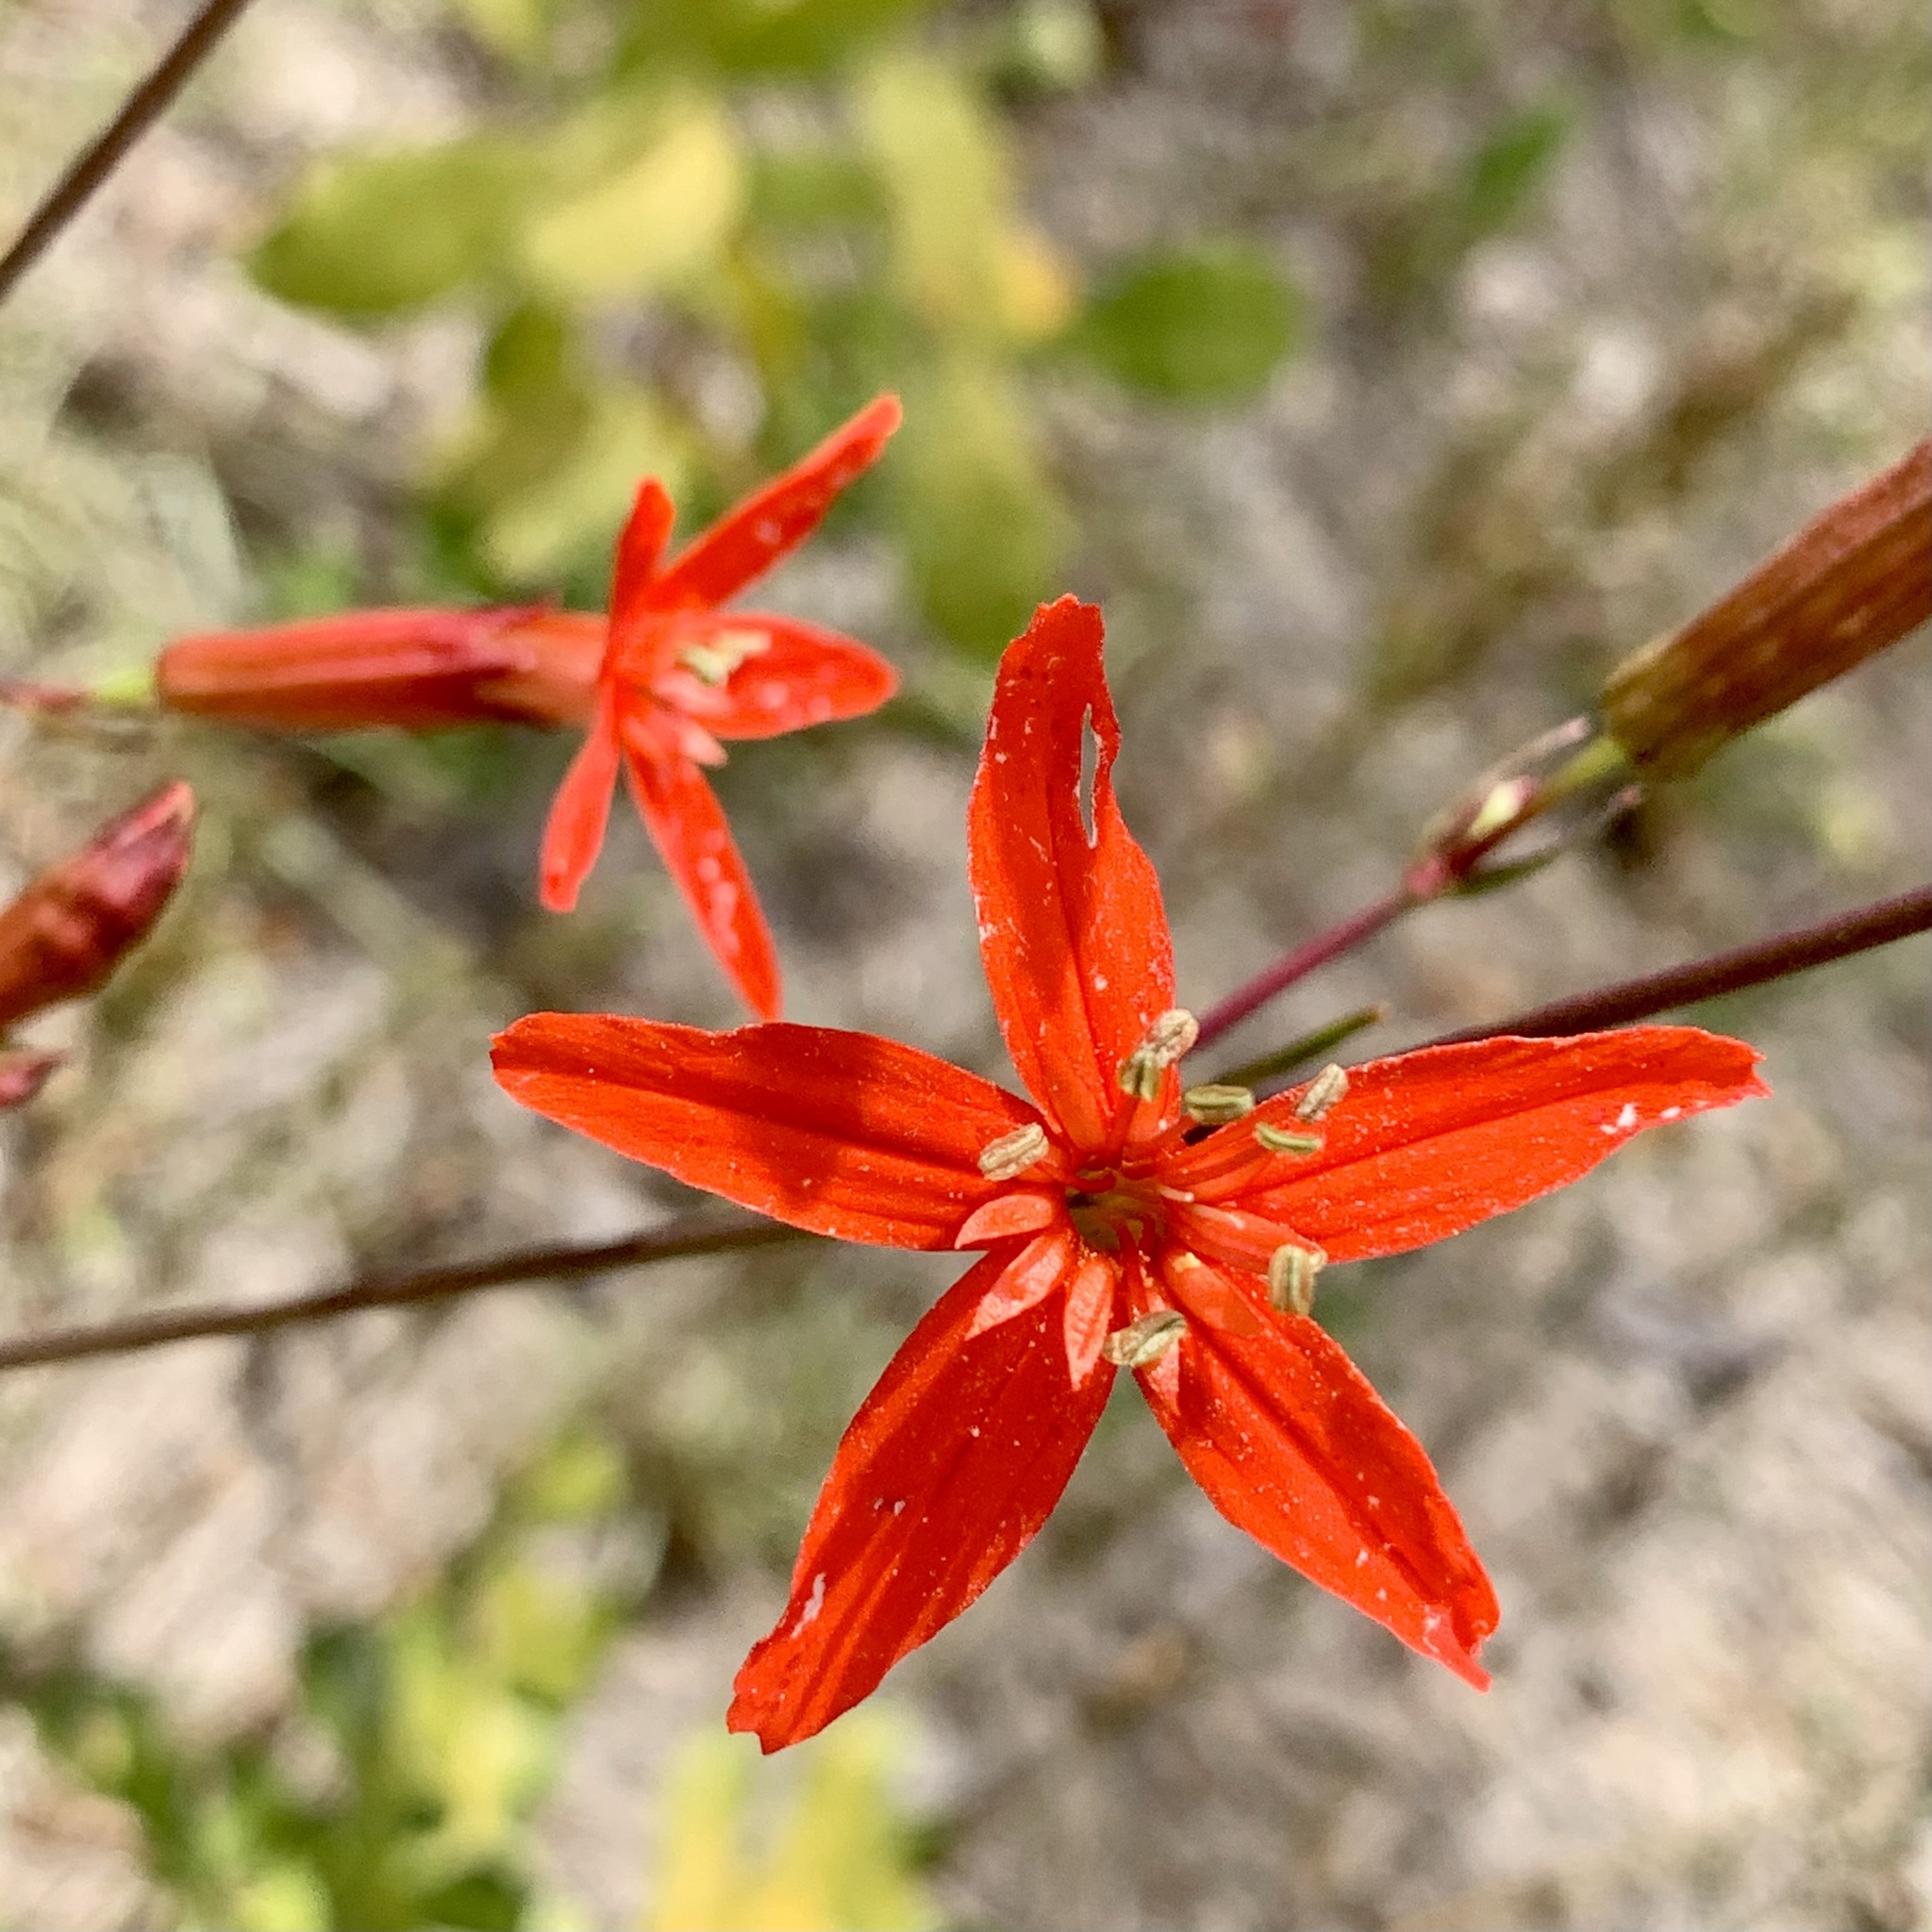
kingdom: Plantae
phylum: Tracheophyta
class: Magnoliopsida
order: Caryophyllales
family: Caryophyllaceae
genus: Silene
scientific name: Silene subciliata
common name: Prairie fire-pink
